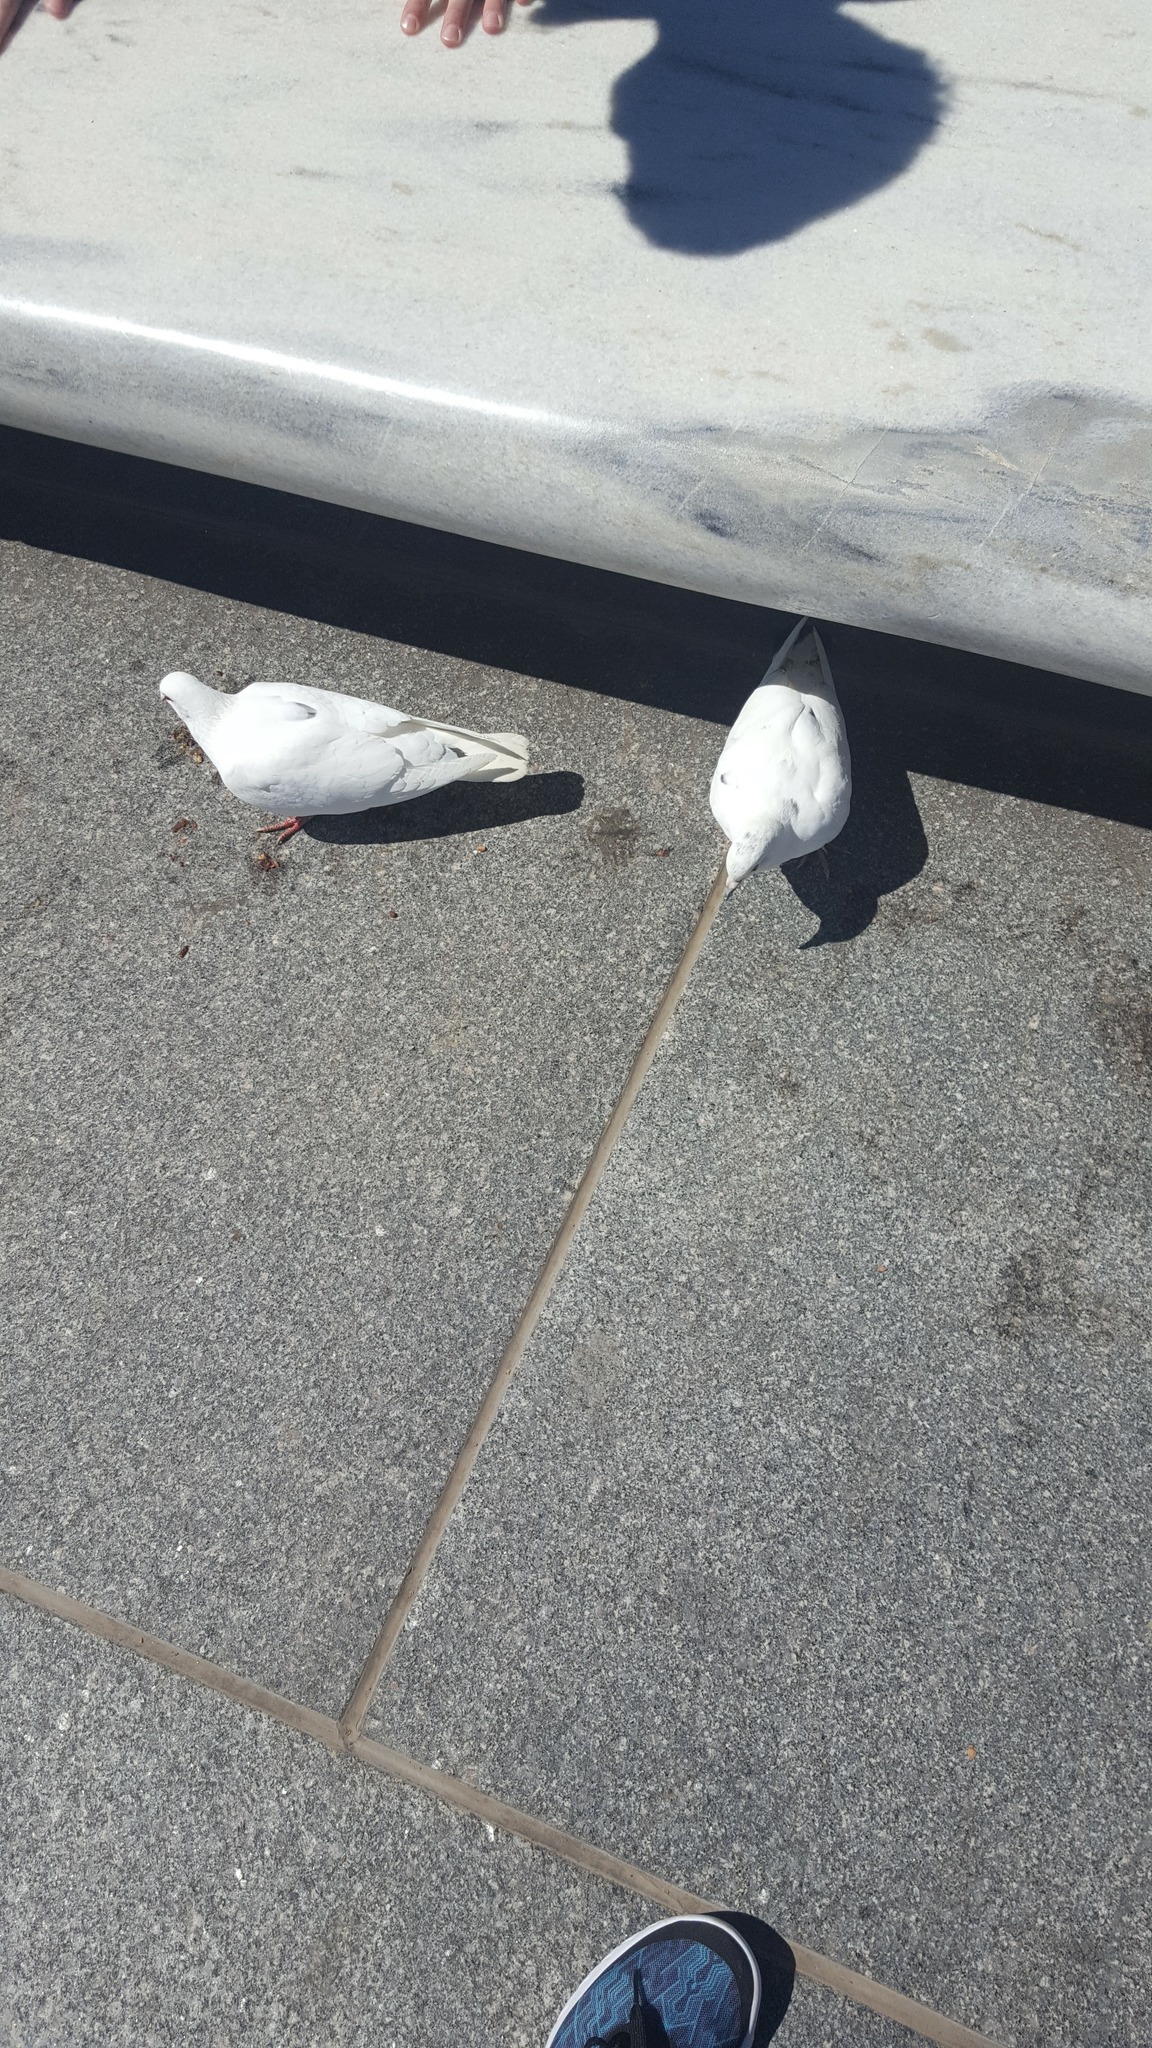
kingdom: Animalia
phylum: Chordata
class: Aves
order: Columbiformes
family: Columbidae
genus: Columba
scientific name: Columba livia
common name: Rock pigeon
